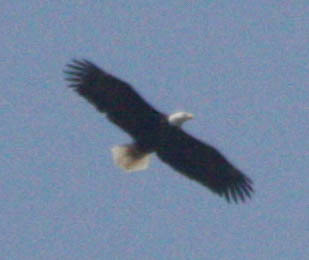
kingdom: Animalia
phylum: Chordata
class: Aves
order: Accipitriformes
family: Accipitridae
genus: Haliaeetus
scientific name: Haliaeetus leucocephalus
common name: Bald eagle
